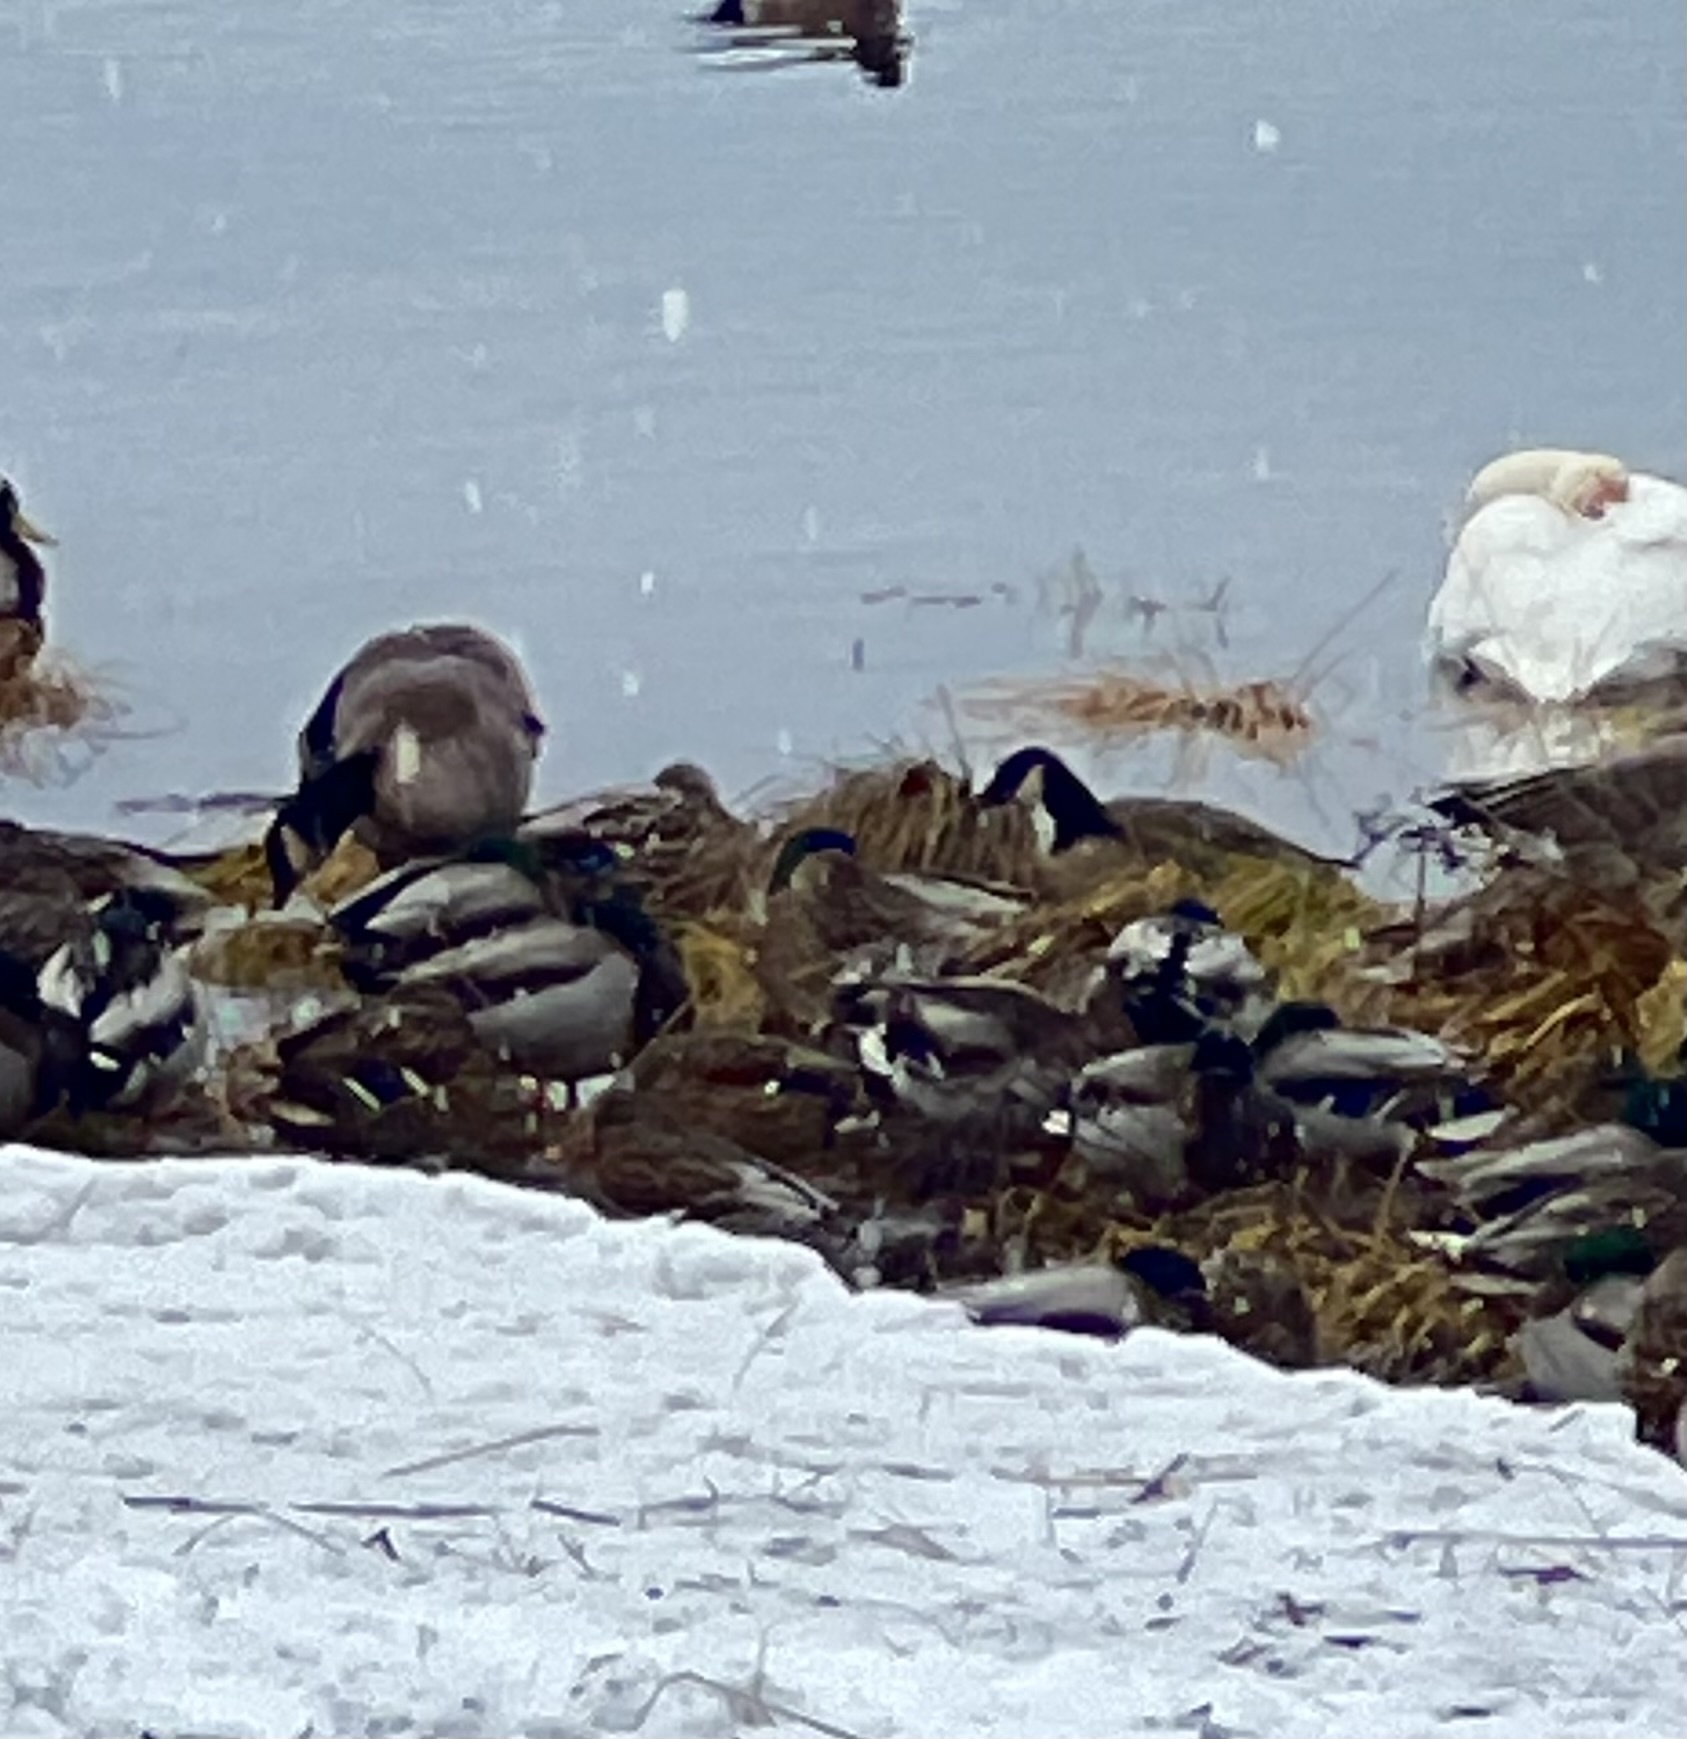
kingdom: Animalia
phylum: Chordata
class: Aves
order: Anseriformes
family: Anatidae
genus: Branta
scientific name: Branta hutchinsii
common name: Cackling goose
